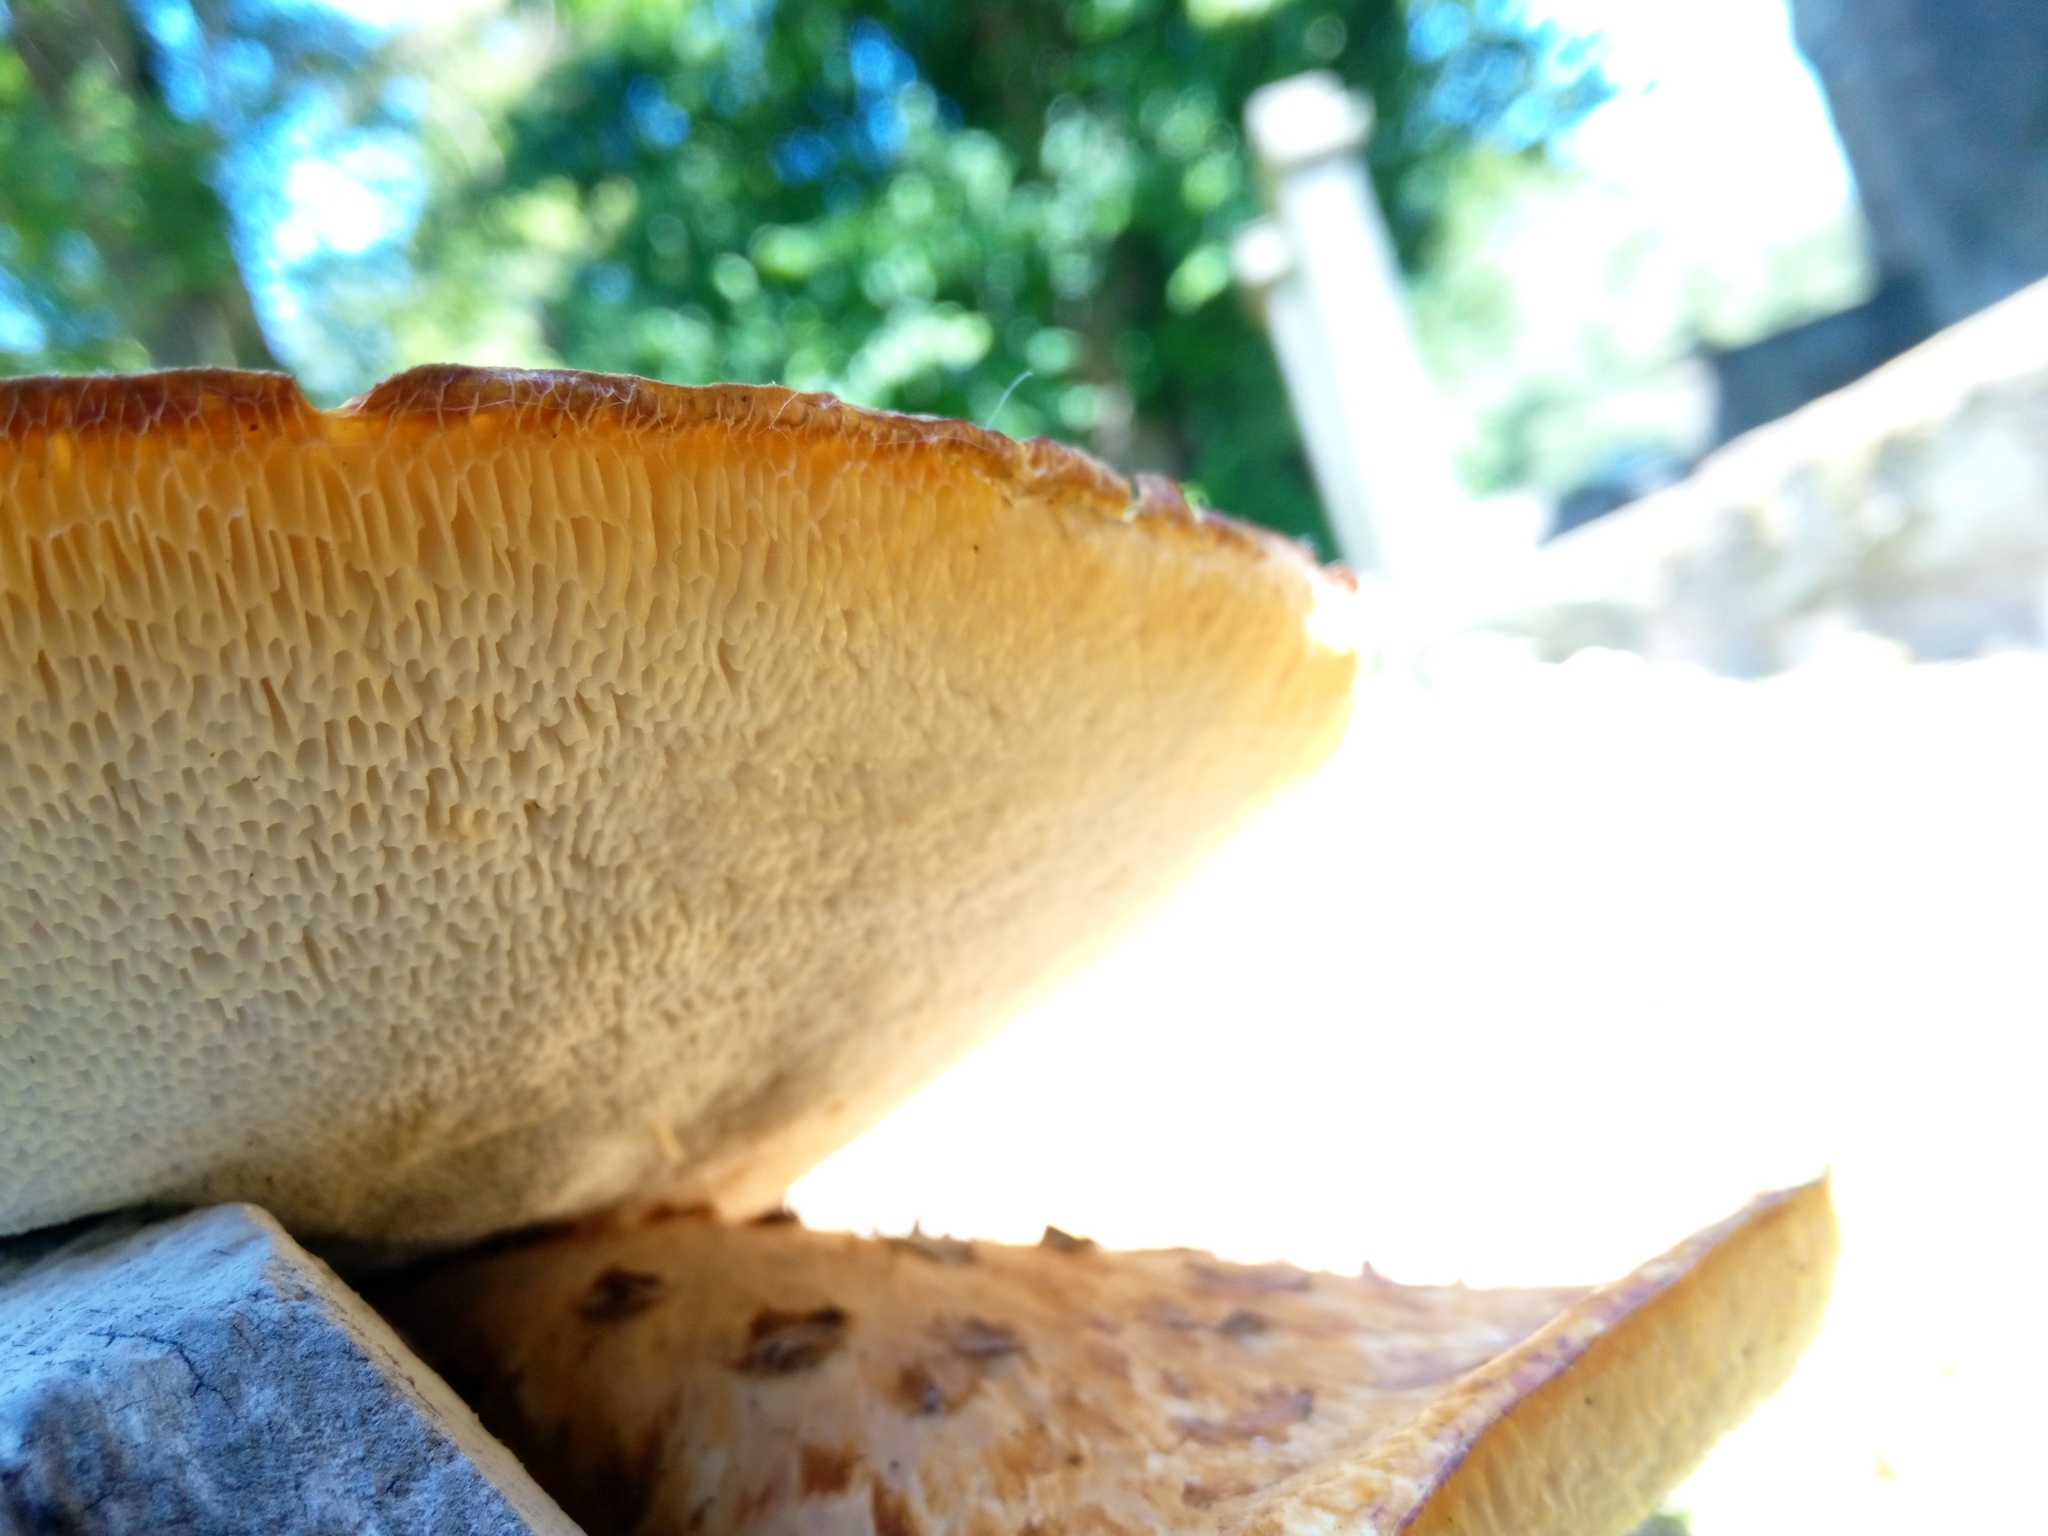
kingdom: Fungi
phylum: Basidiomycota
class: Agaricomycetes
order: Polyporales
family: Polyporaceae
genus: Cerioporus
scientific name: Cerioporus squamosus
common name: Dryad's saddle
